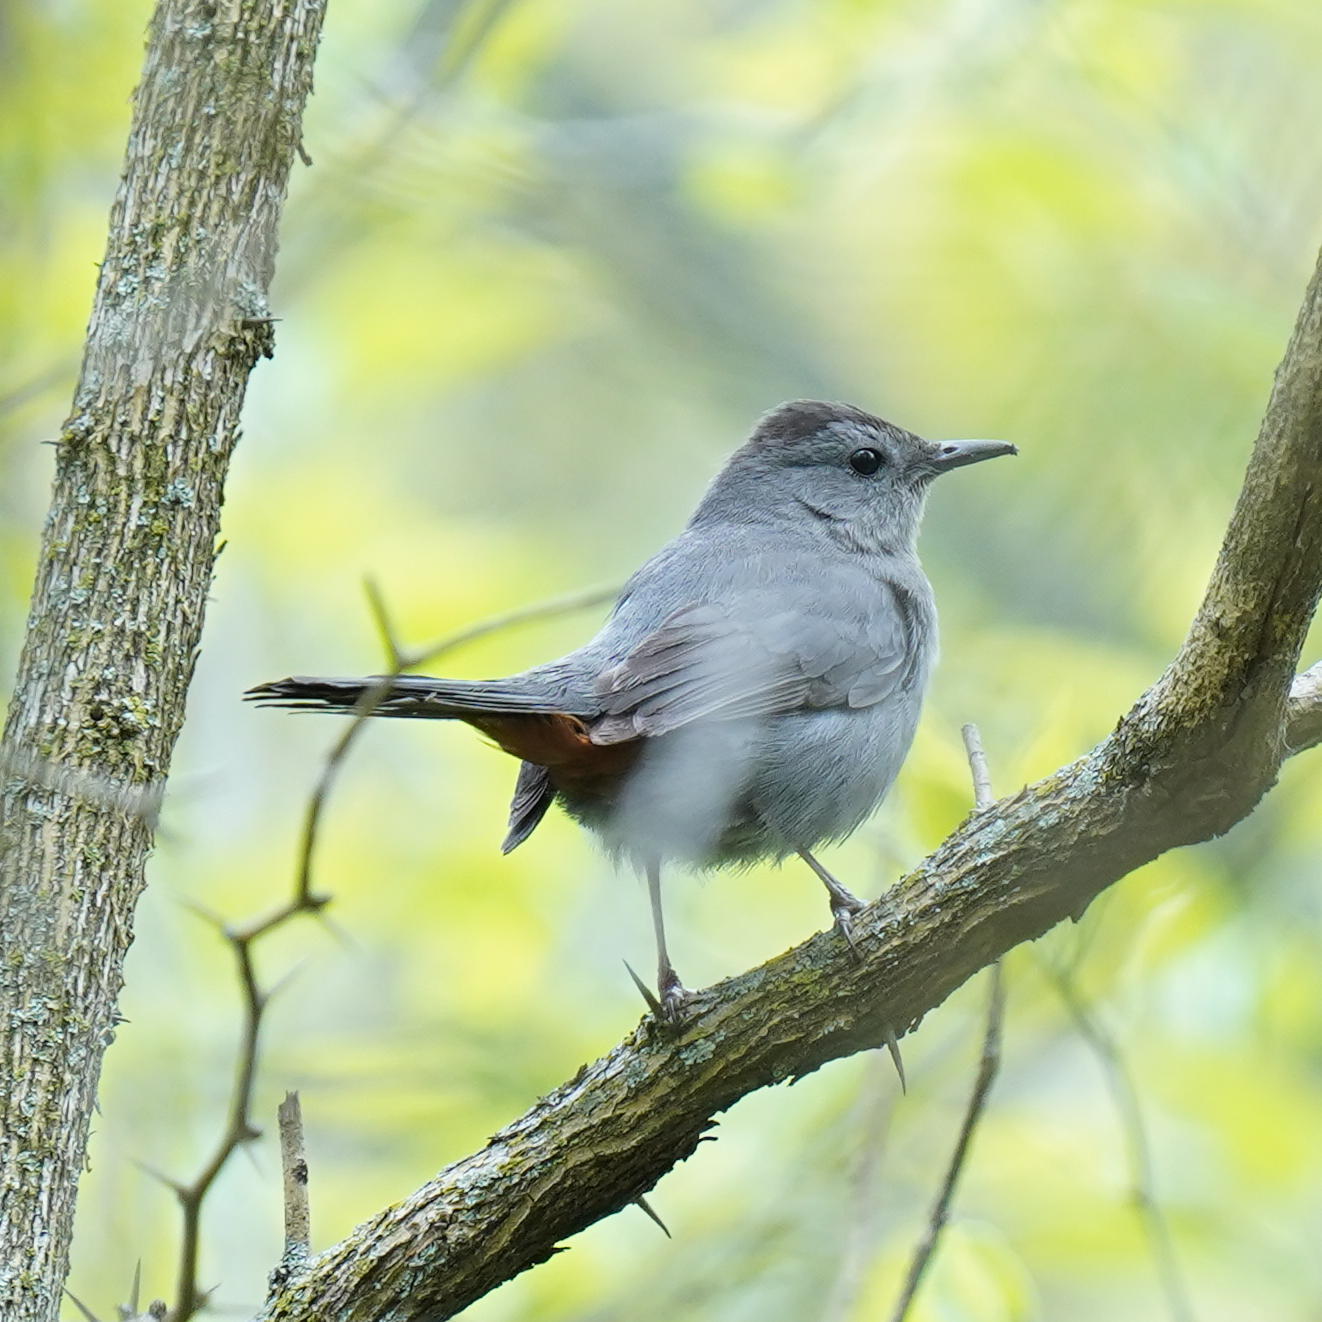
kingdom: Animalia
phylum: Chordata
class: Aves
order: Passeriformes
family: Mimidae
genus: Dumetella
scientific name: Dumetella carolinensis
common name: Gray catbird
